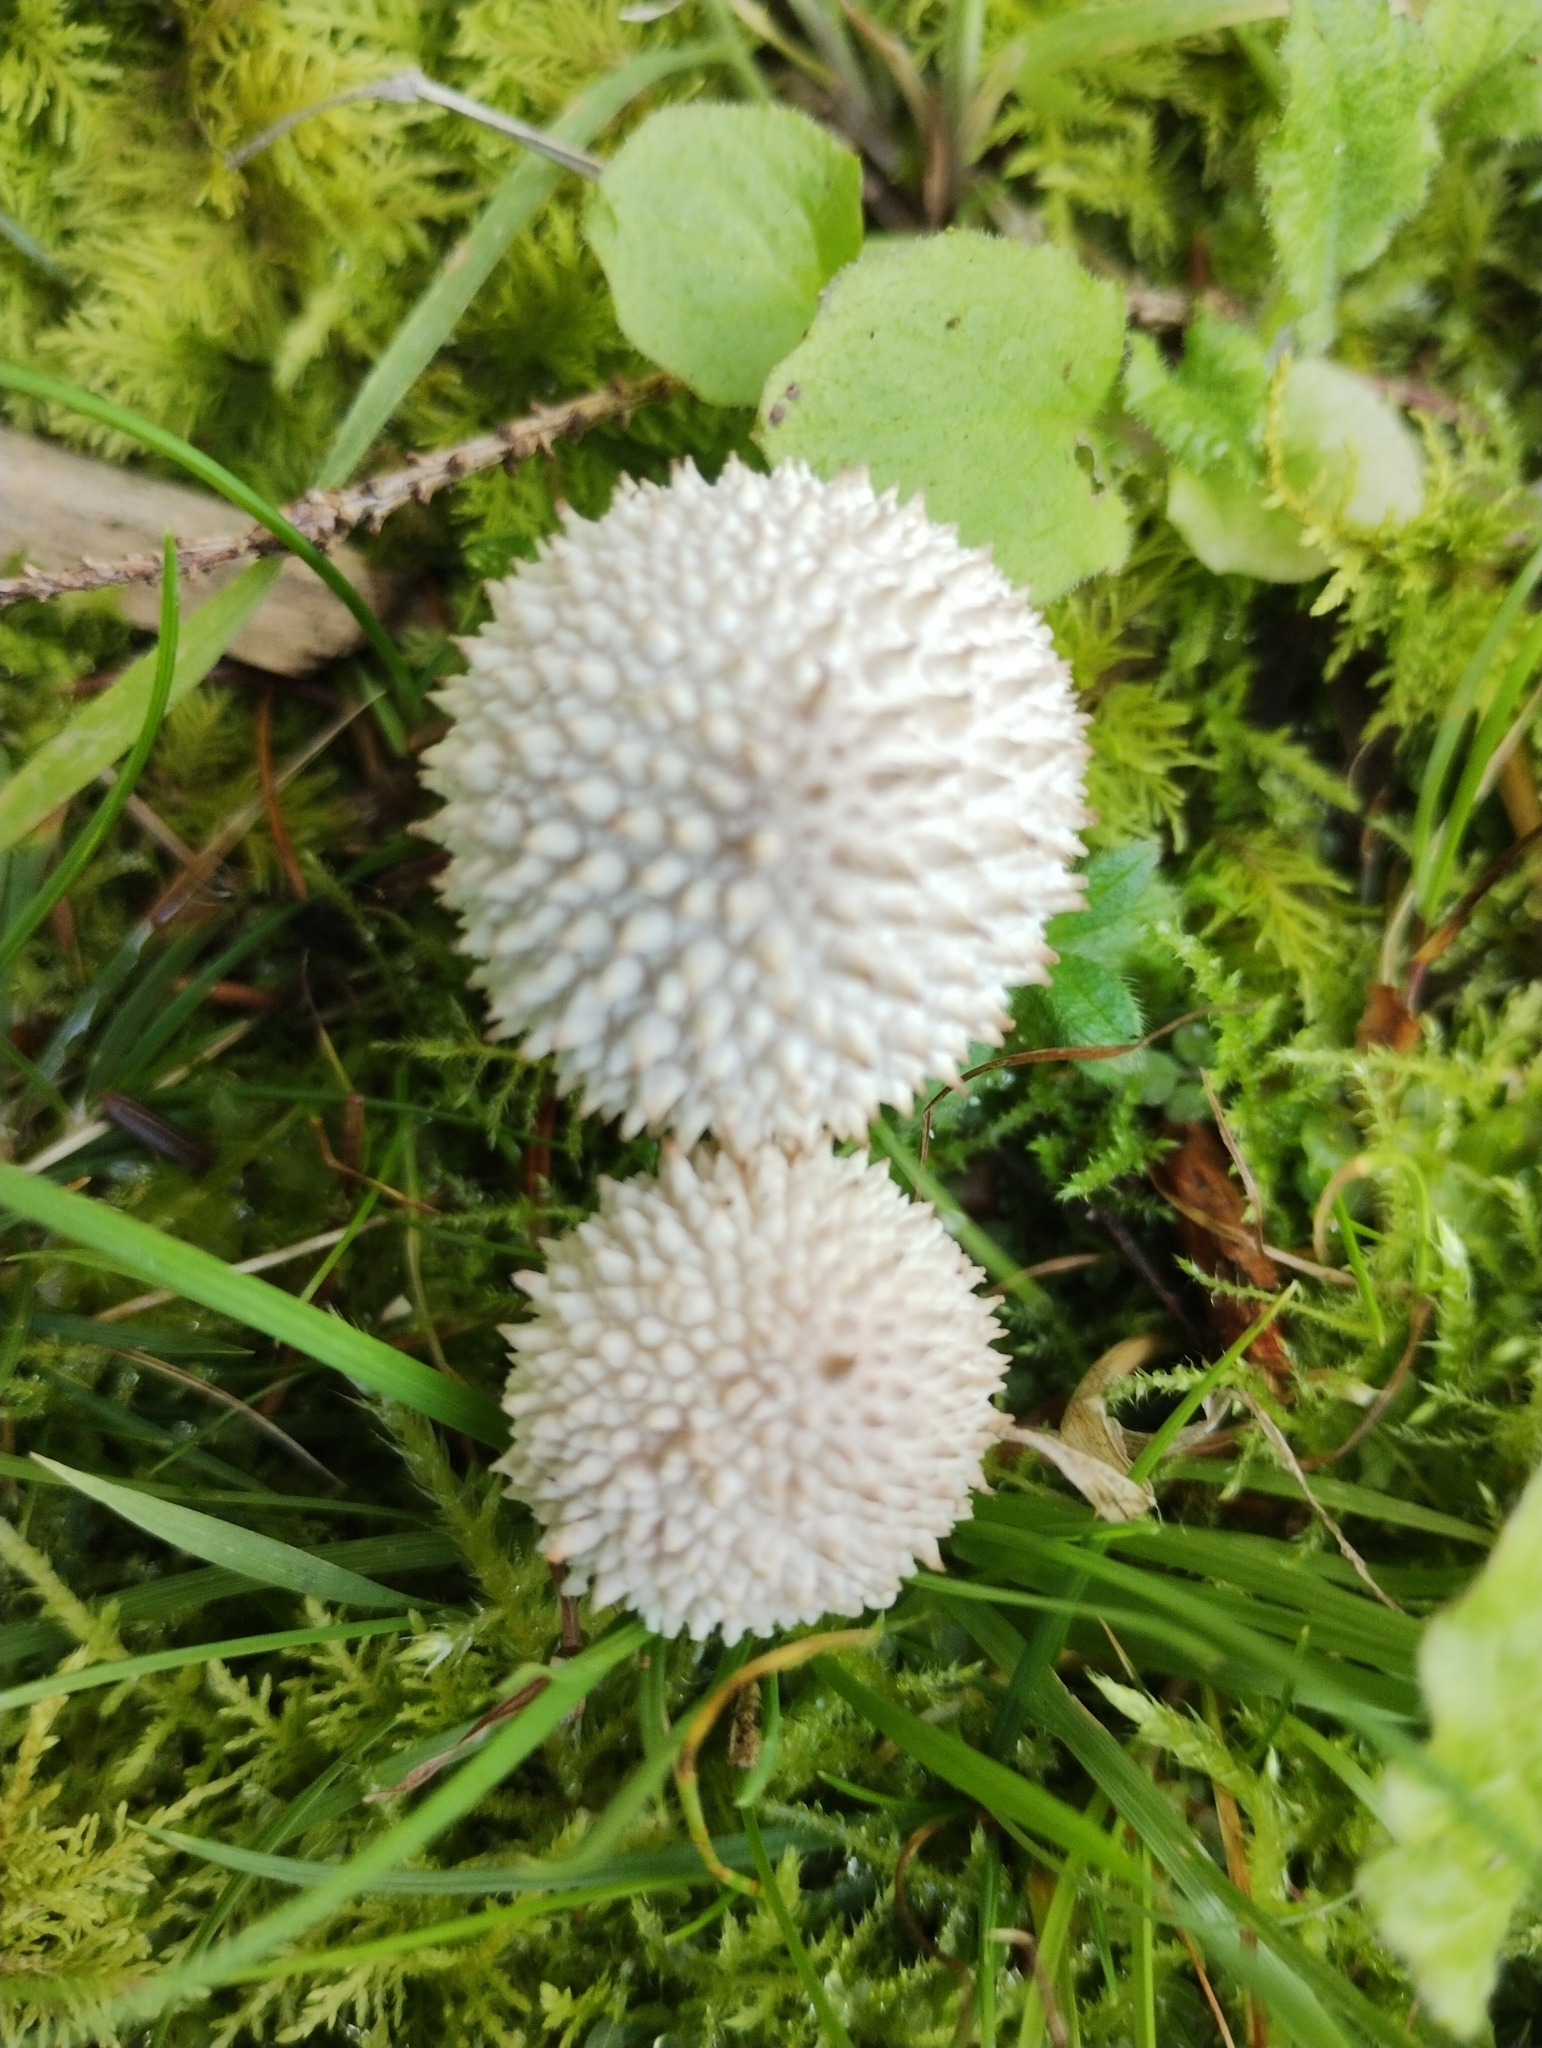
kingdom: Fungi
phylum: Basidiomycota
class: Agaricomycetes
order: Agaricales
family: Lycoperdaceae
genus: Lycoperdon
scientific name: Lycoperdon perlatum
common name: Common puffball
